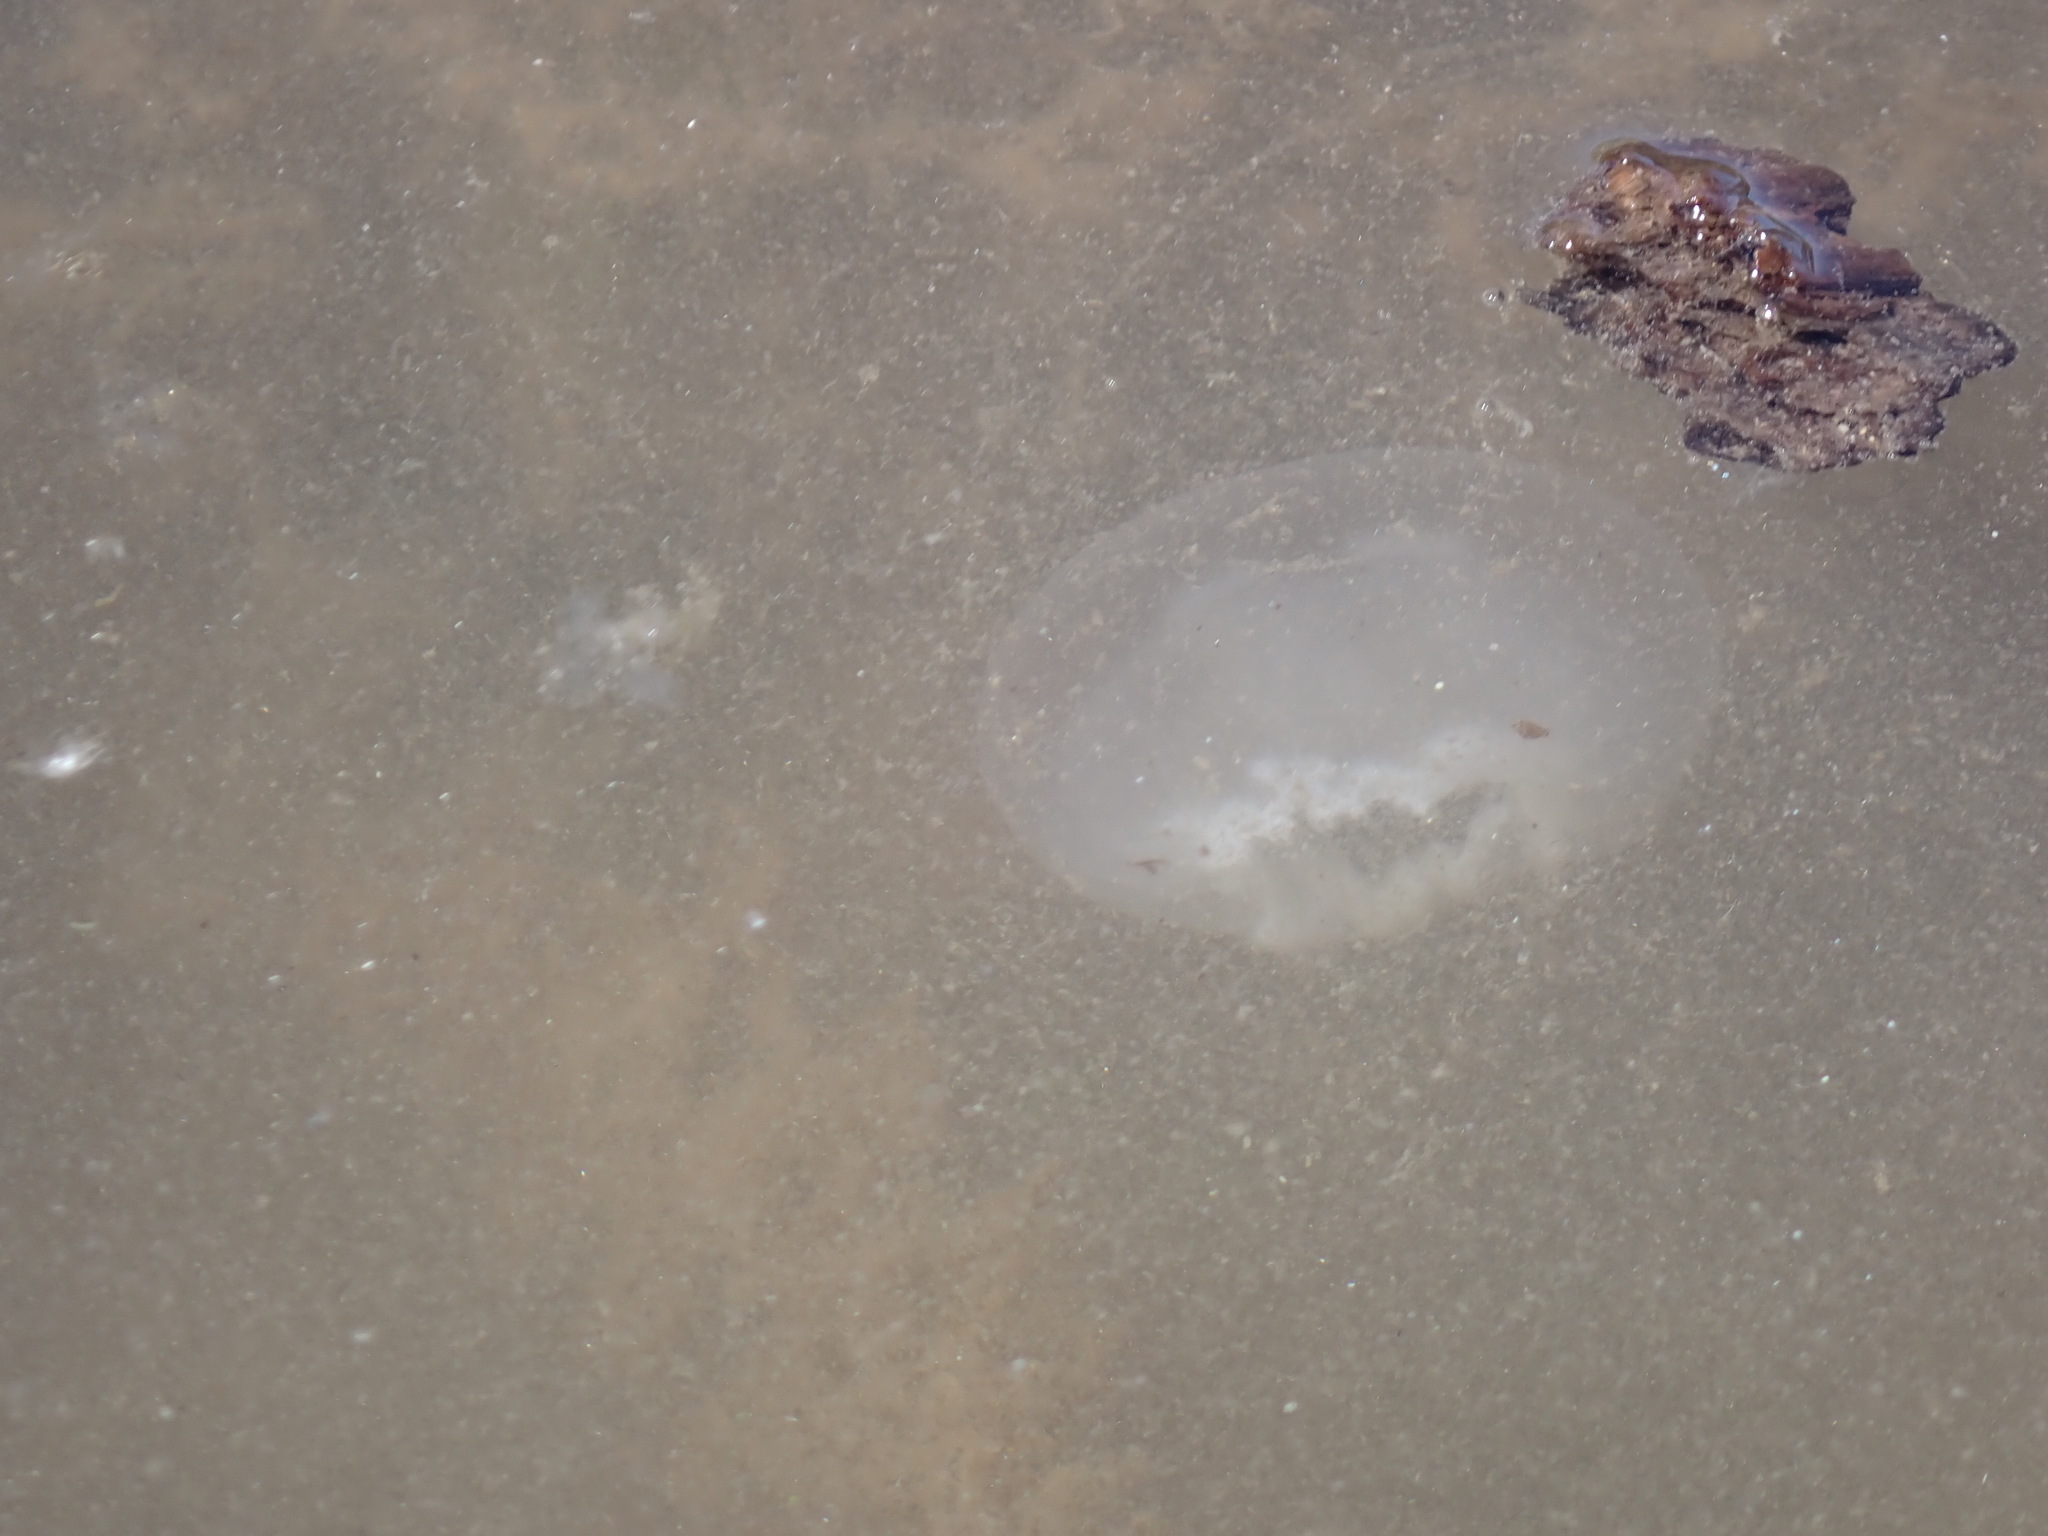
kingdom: Animalia
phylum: Cnidaria
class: Scyphozoa
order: Semaeostomeae
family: Ulmaridae
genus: Aurelia
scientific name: Aurelia labiata
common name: Pacific moon jelly
